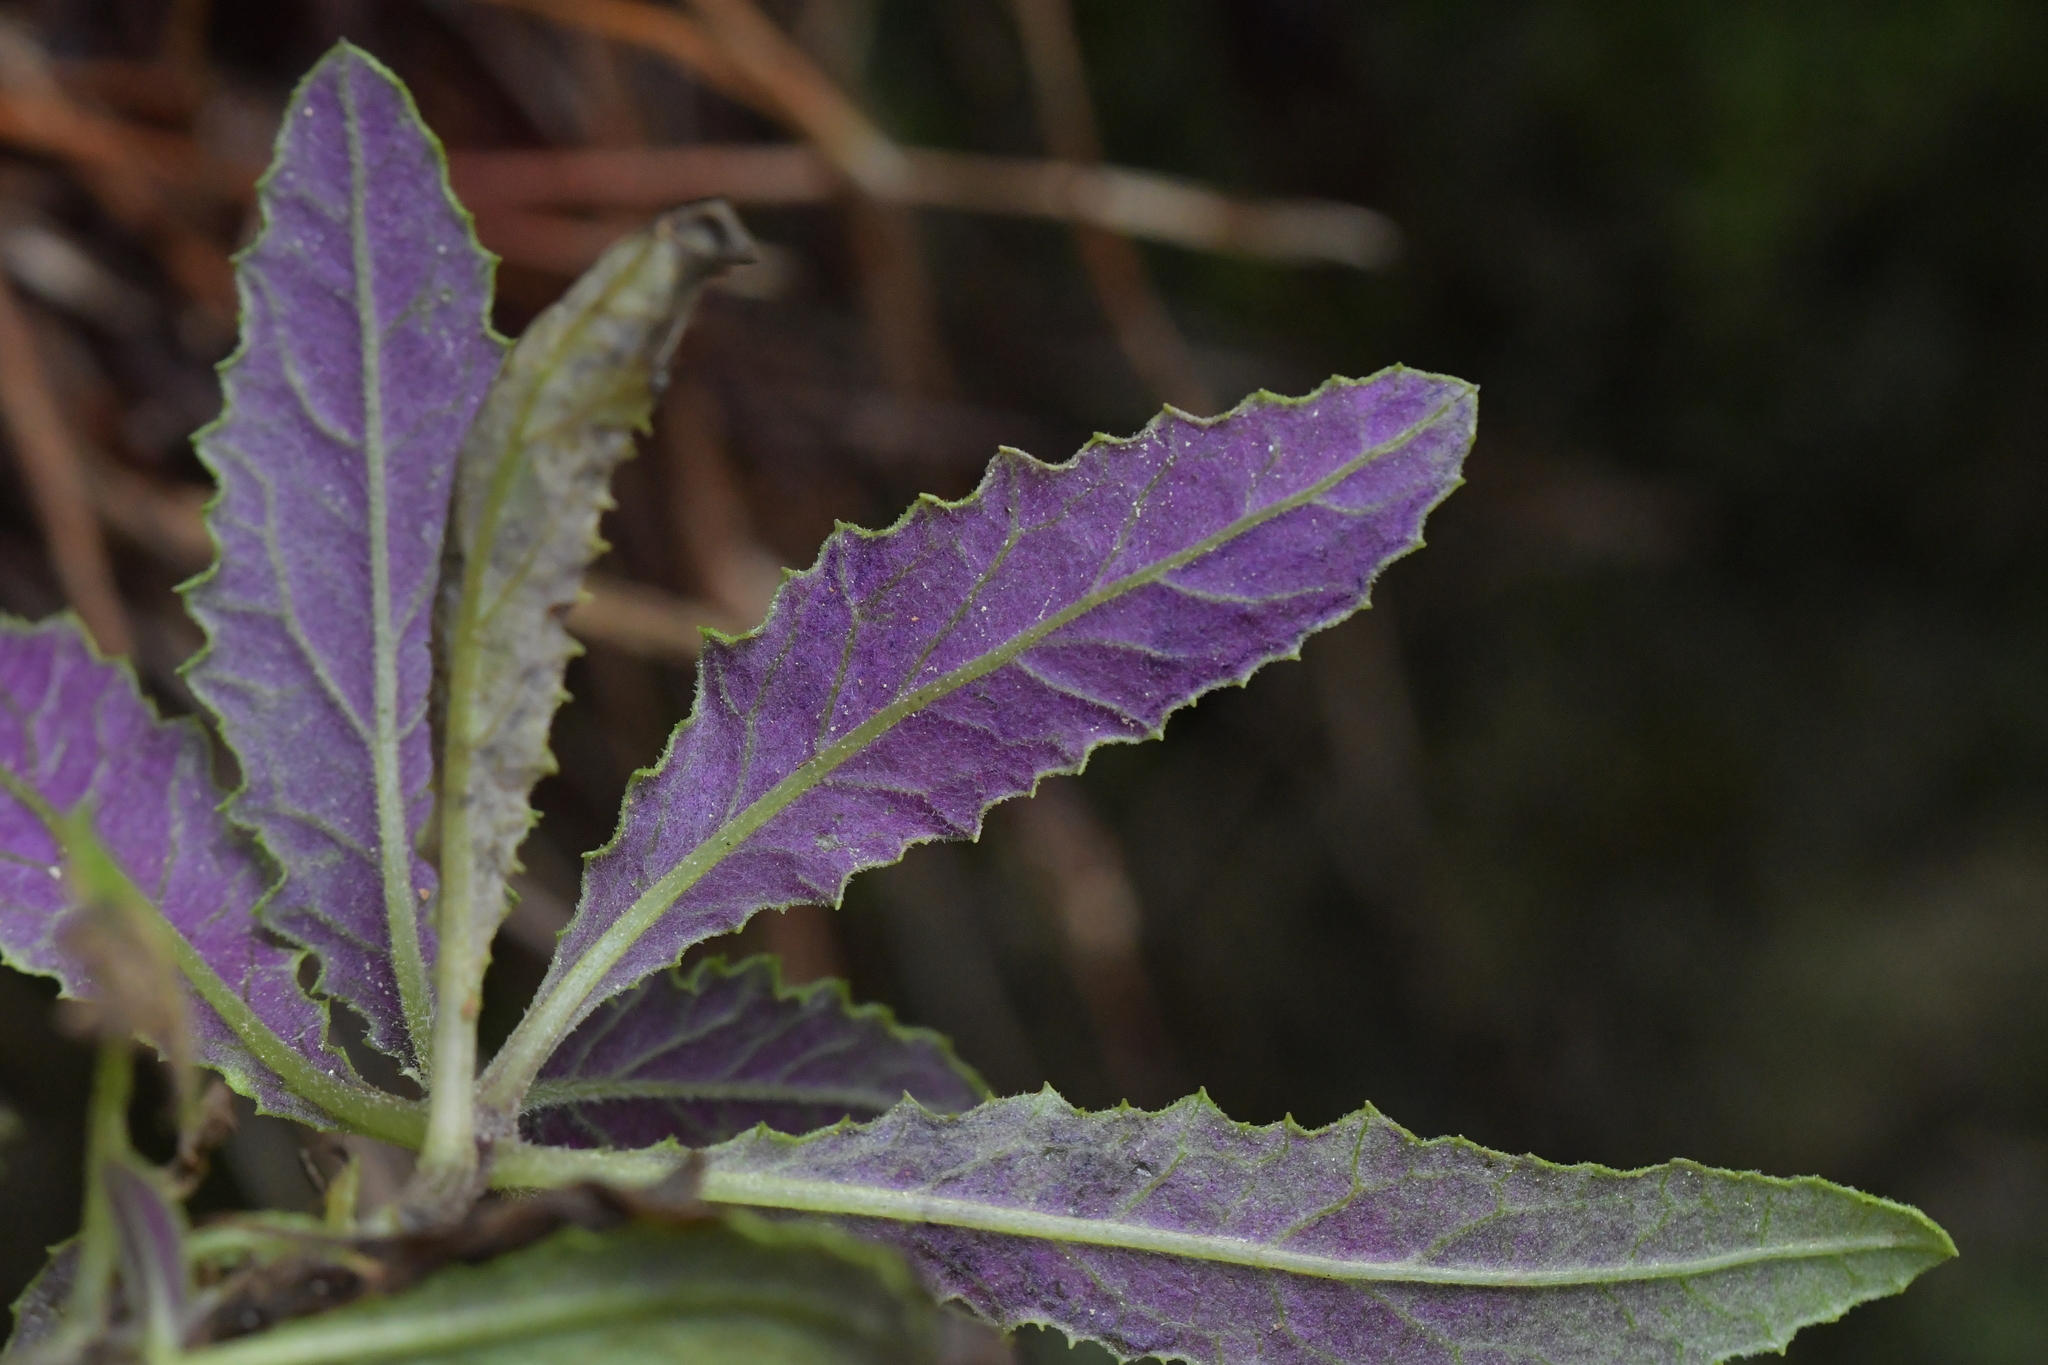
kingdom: Plantae
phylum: Tracheophyta
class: Magnoliopsida
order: Asterales
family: Asteraceae
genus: Senecio
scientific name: Senecio minimus
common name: Toothed fireweed
